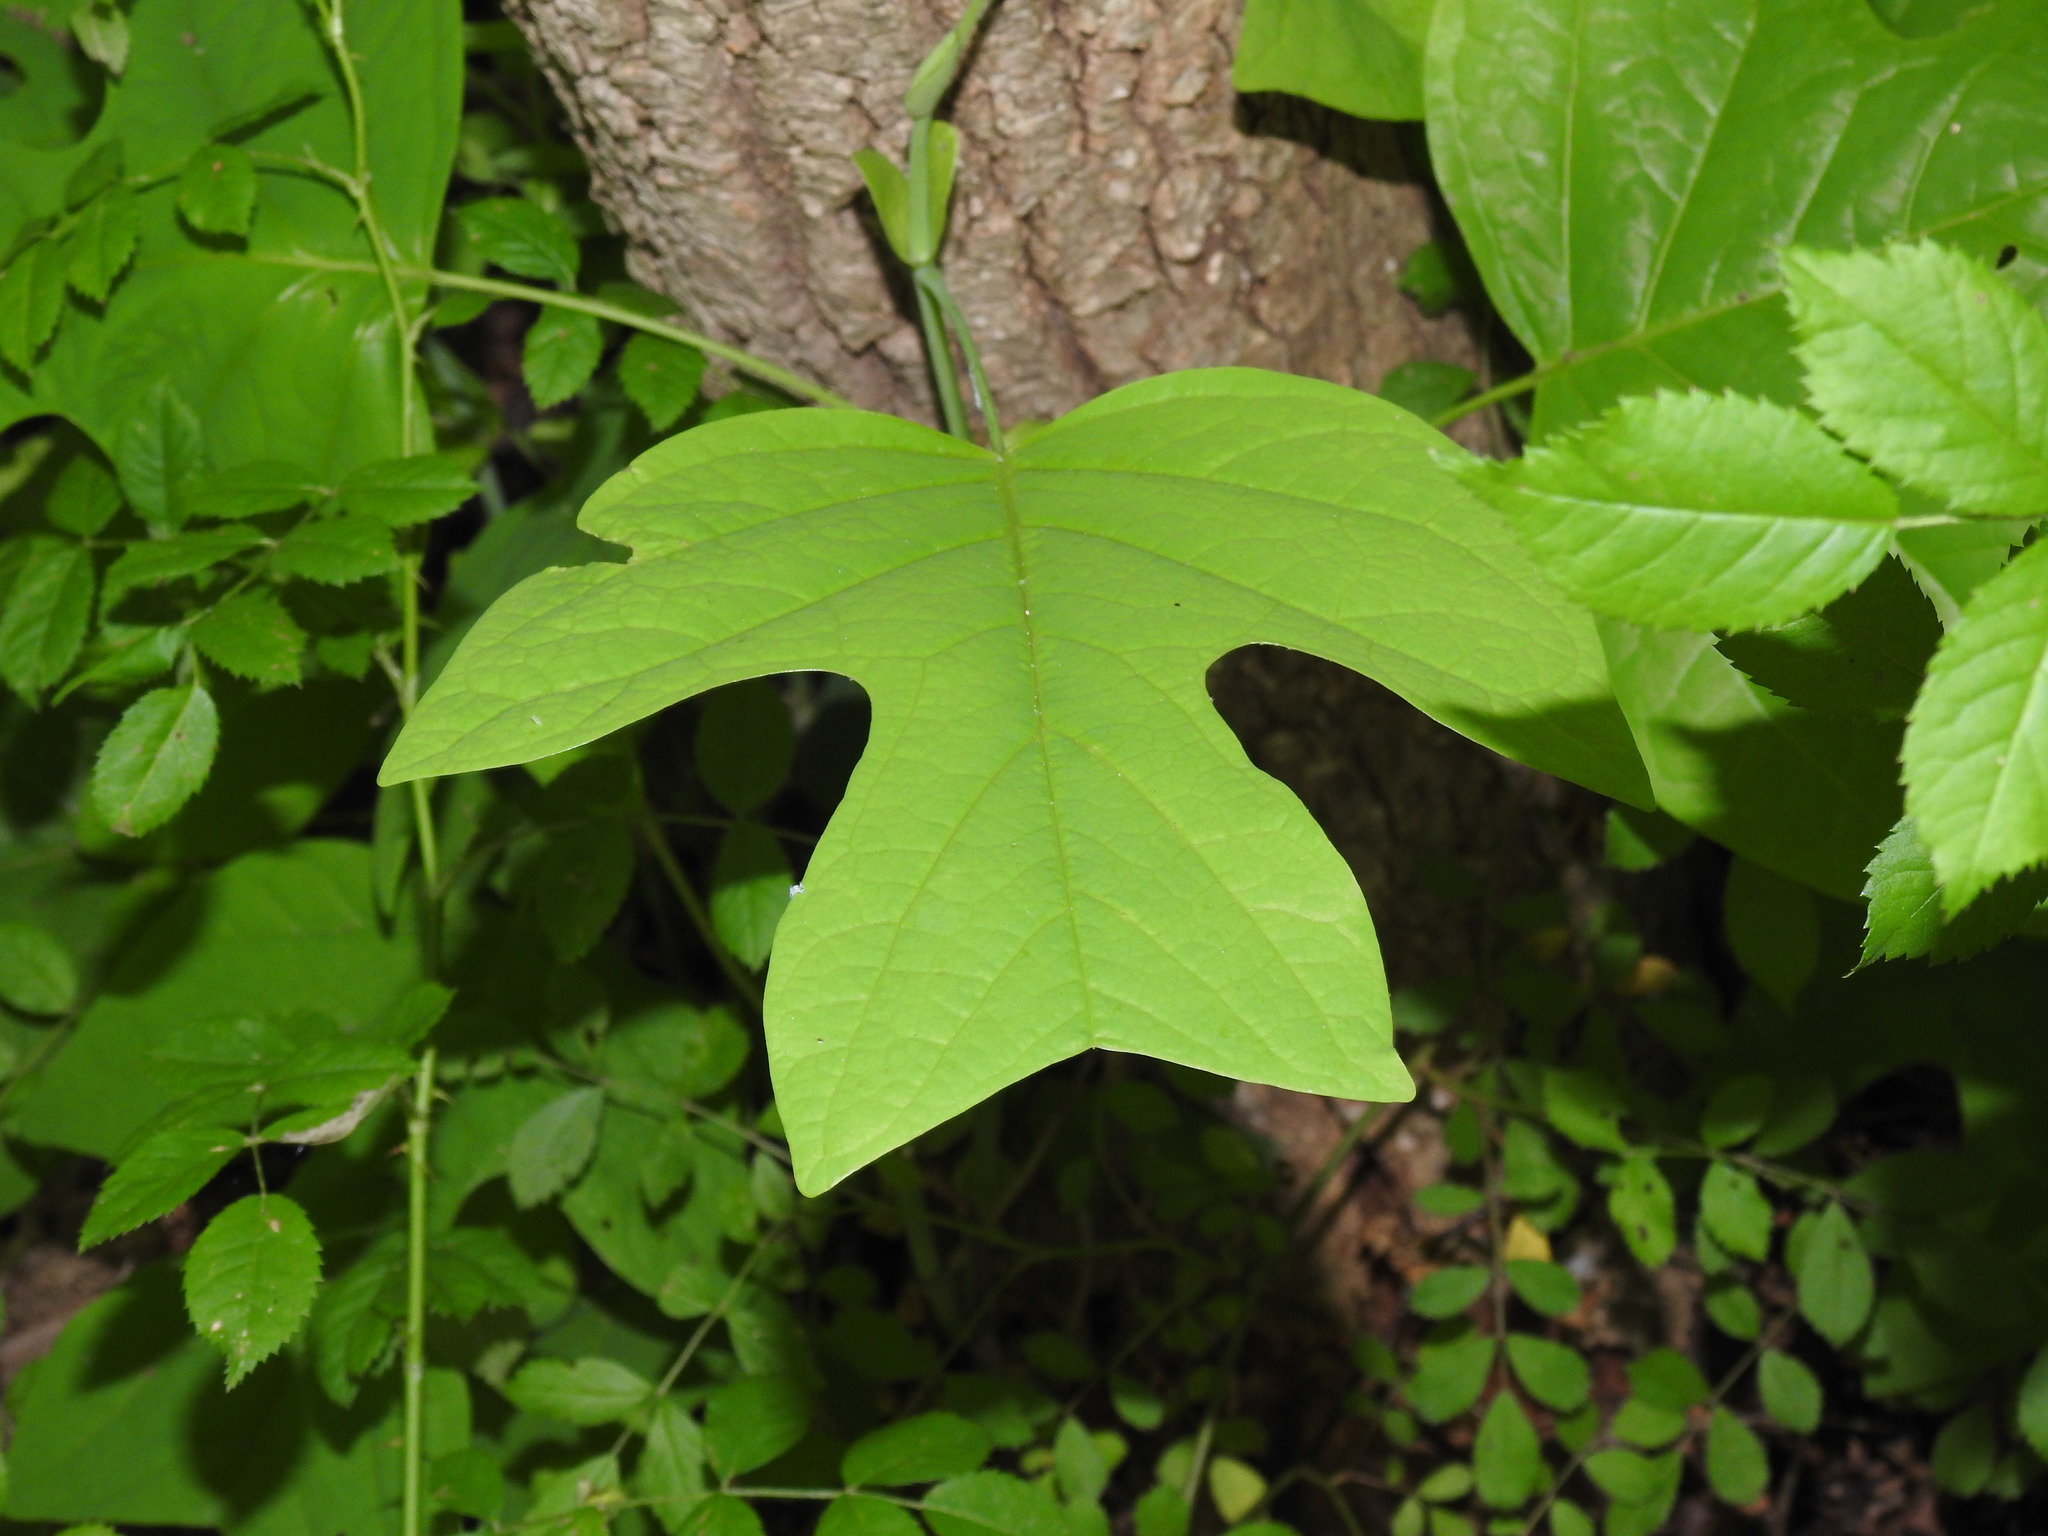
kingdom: Plantae
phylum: Tracheophyta
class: Magnoliopsida
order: Magnoliales
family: Magnoliaceae
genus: Liriodendron
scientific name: Liriodendron tulipifera
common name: Tulip tree
